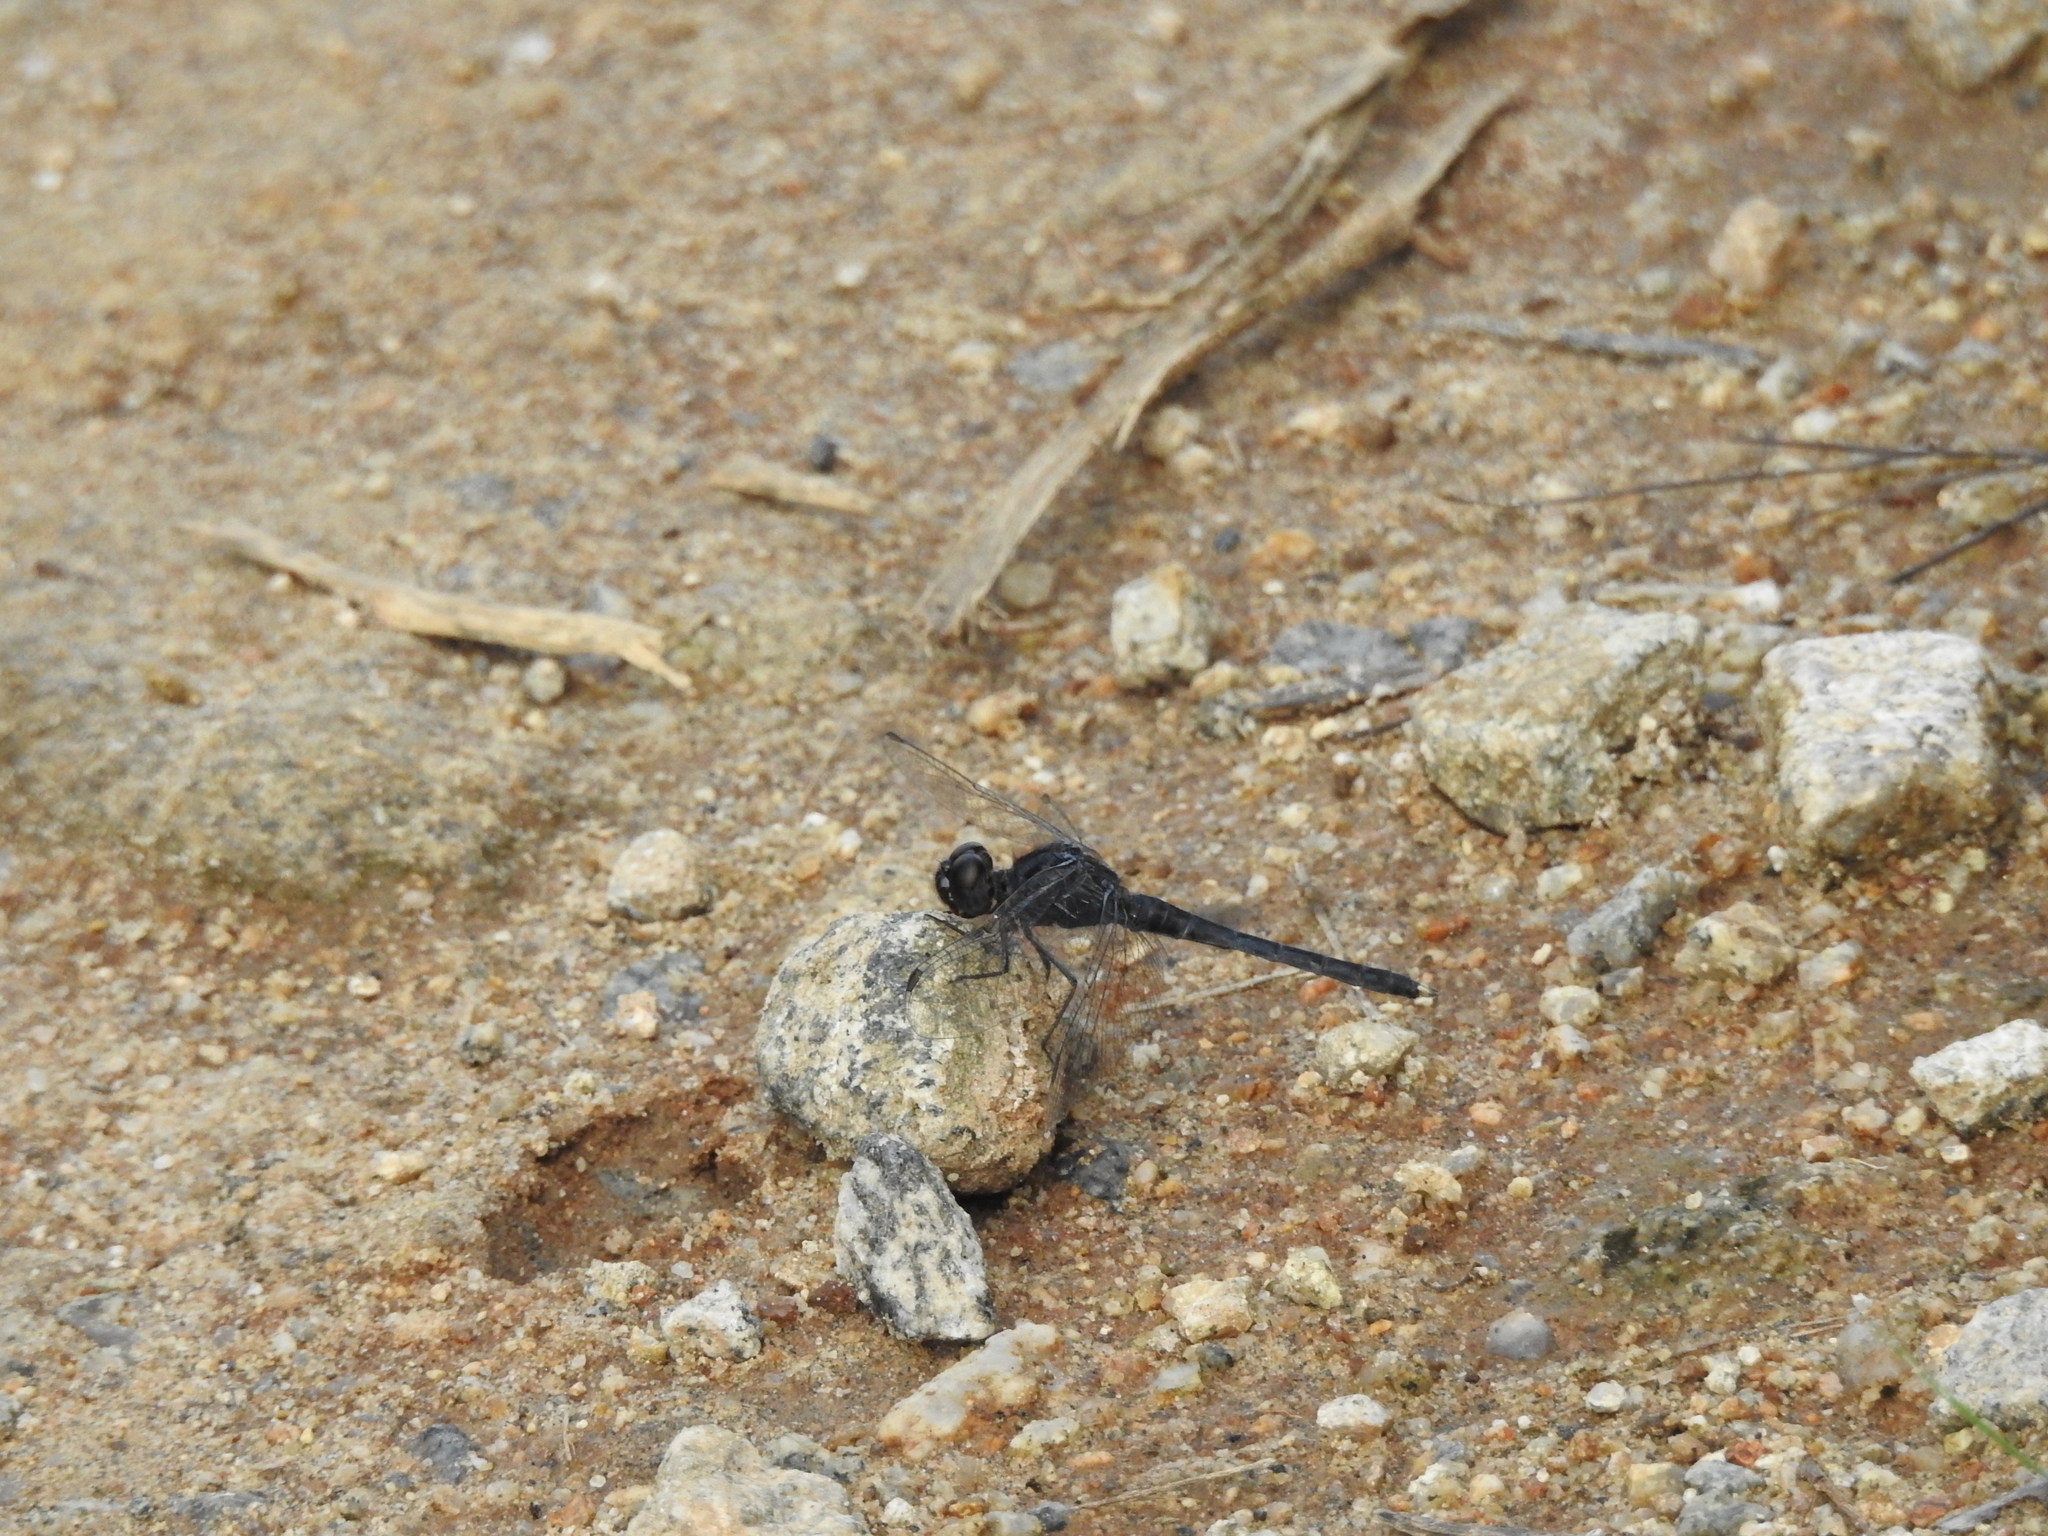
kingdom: Animalia
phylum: Arthropoda
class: Insecta
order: Odonata
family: Libellulidae
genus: Indothemis
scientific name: Indothemis carnatica
